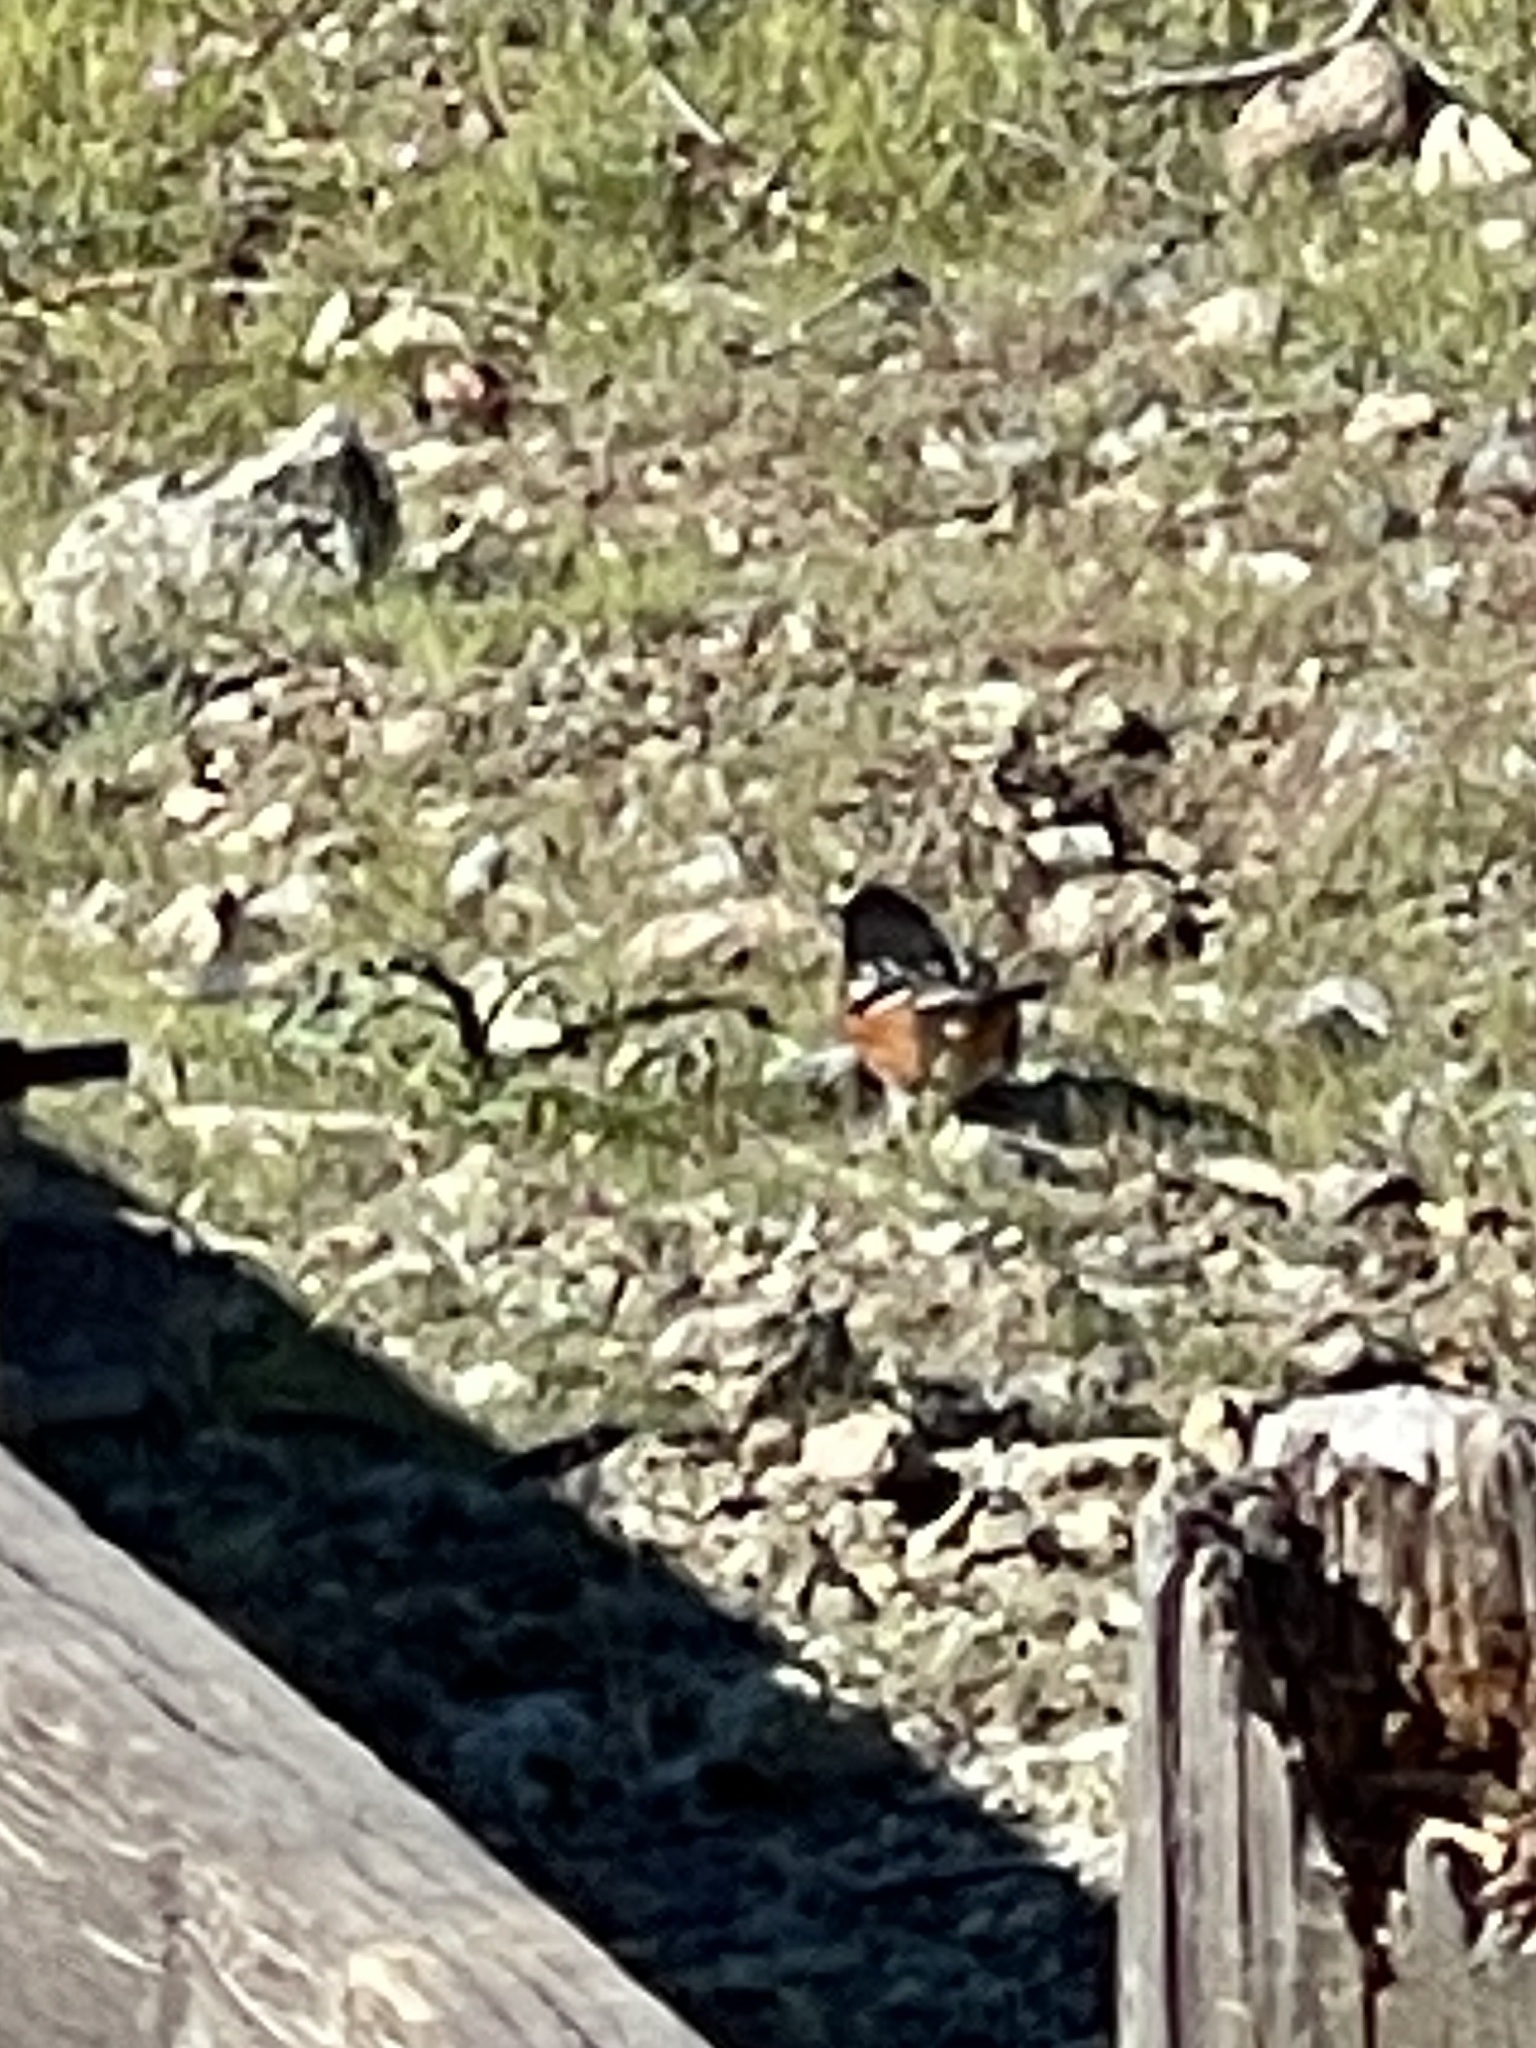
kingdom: Animalia
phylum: Chordata
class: Aves
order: Passeriformes
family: Passerellidae
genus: Pipilo
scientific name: Pipilo maculatus
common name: Spotted towhee
